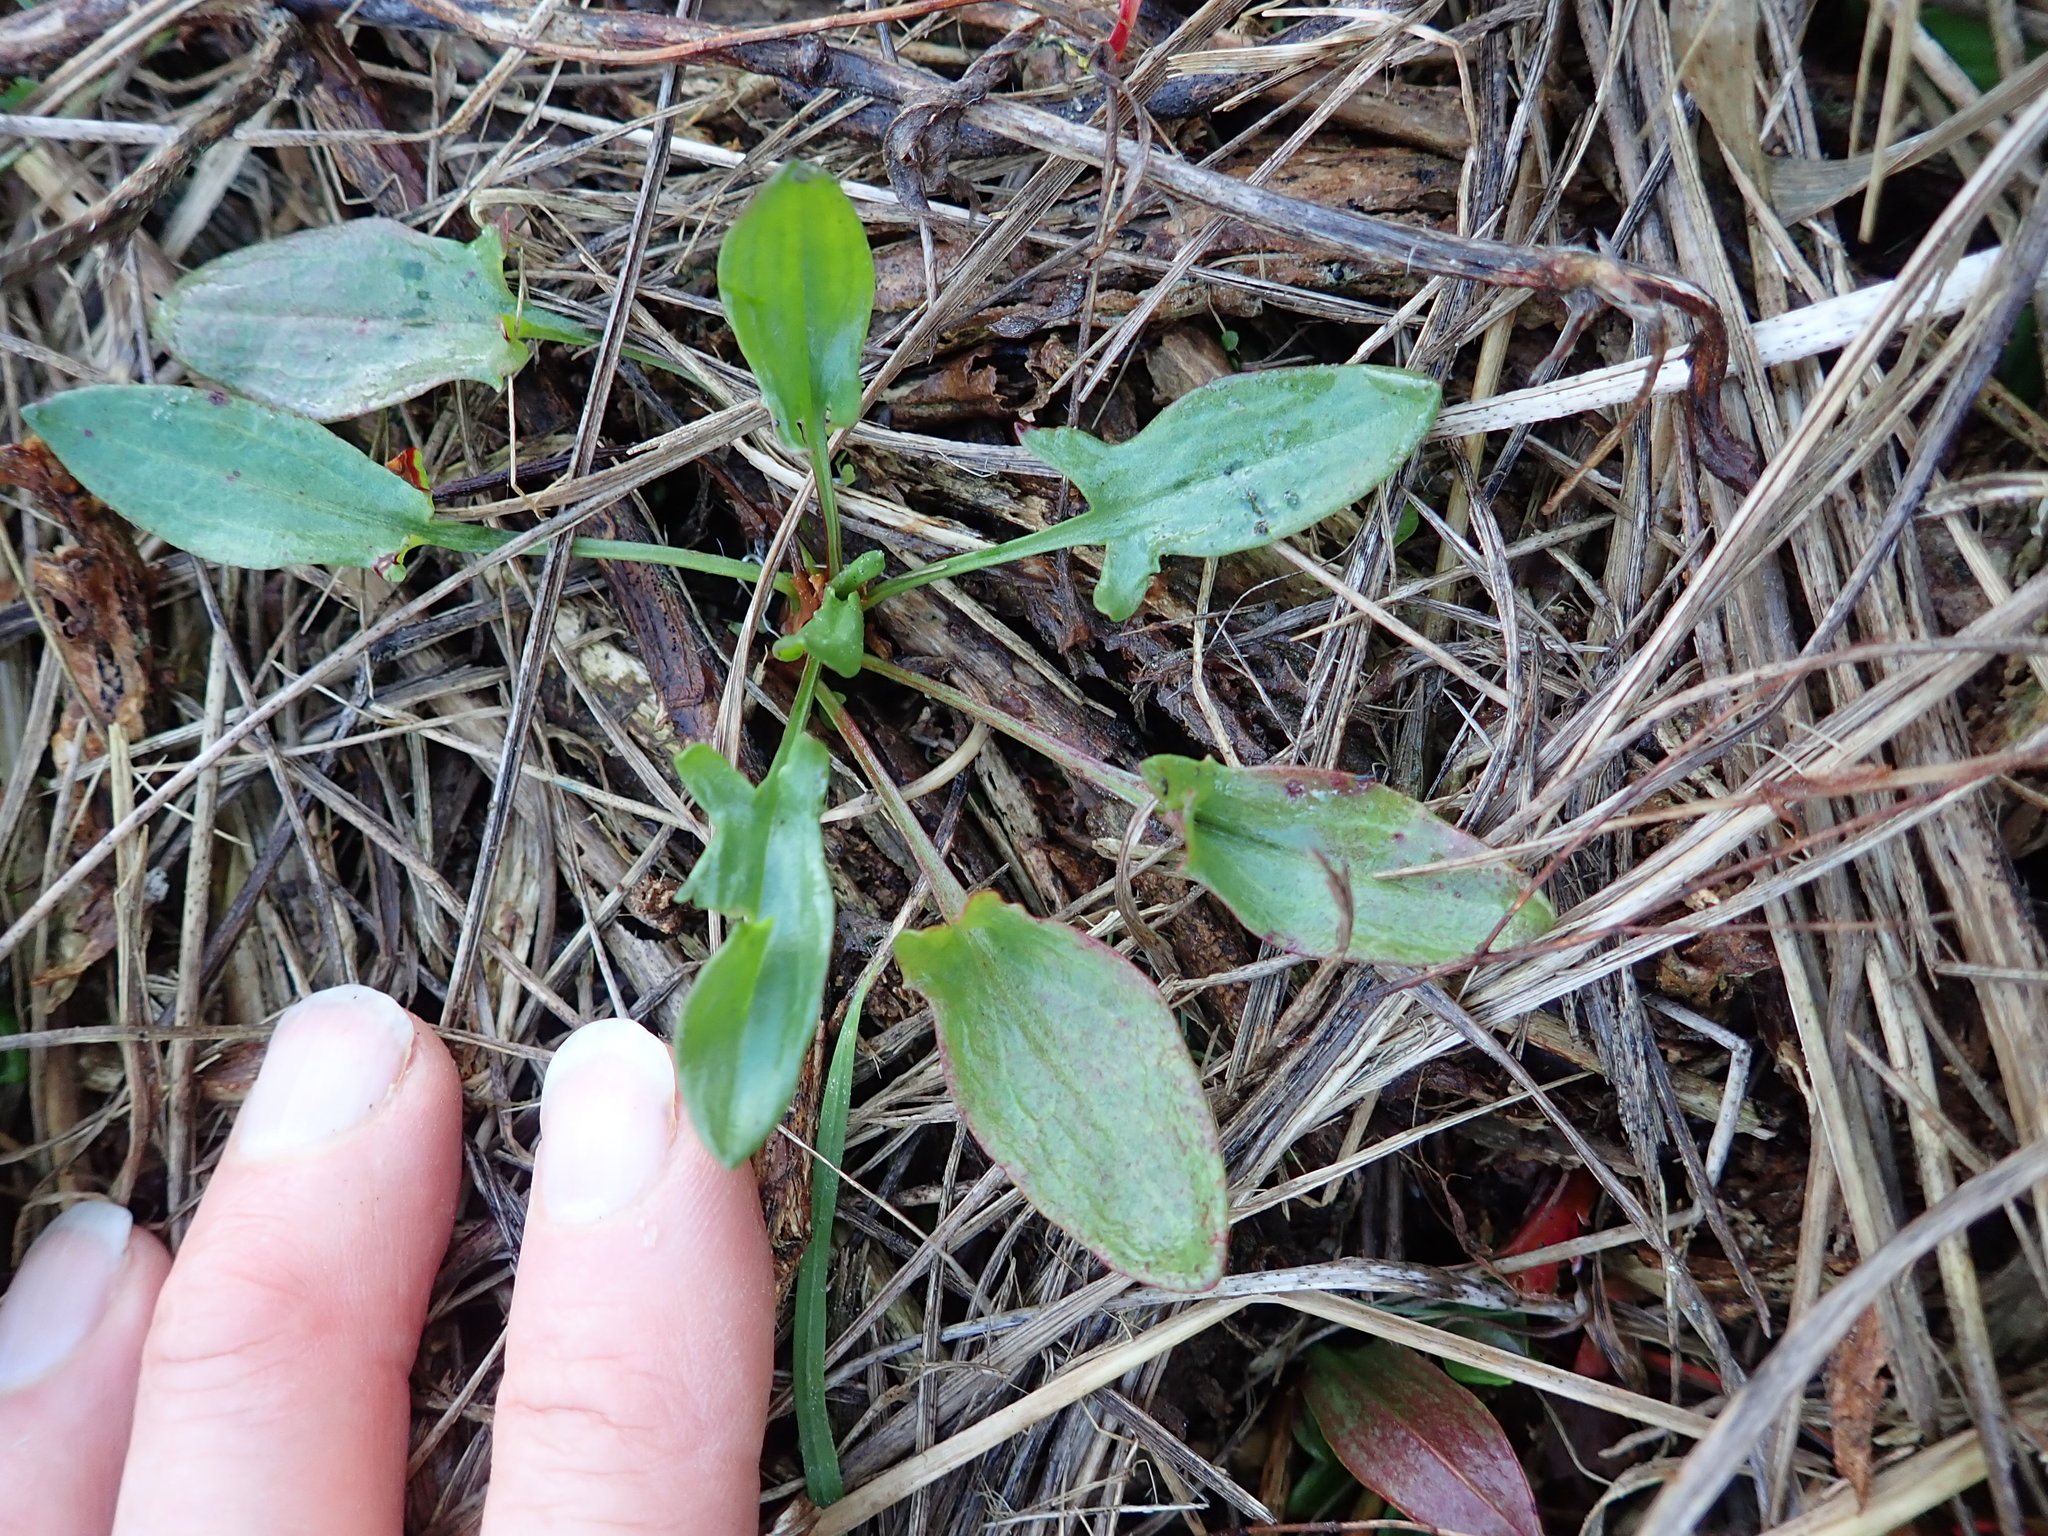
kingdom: Plantae
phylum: Tracheophyta
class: Magnoliopsida
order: Caryophyllales
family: Polygonaceae
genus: Rumex
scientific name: Rumex acetosella
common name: Common sheep sorrel
